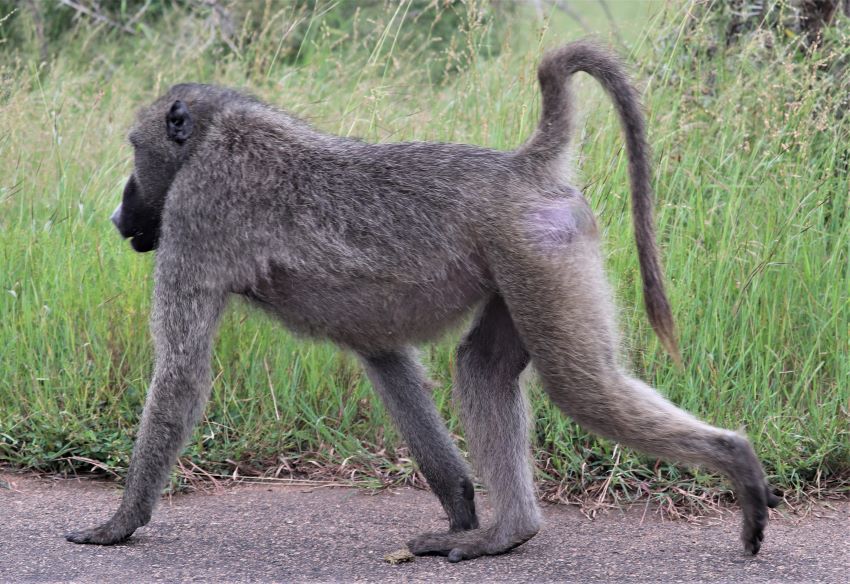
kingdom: Animalia
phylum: Chordata
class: Mammalia
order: Primates
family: Cercopithecidae
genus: Papio
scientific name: Papio ursinus
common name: Chacma baboon
